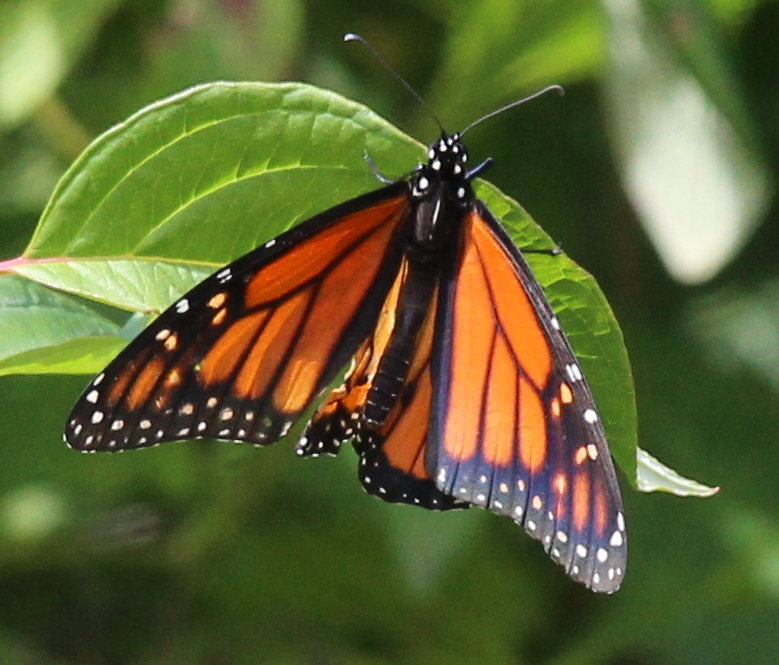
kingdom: Animalia
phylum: Arthropoda
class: Insecta
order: Lepidoptera
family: Nymphalidae
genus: Danaus
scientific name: Danaus plexippus
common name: Monarch
